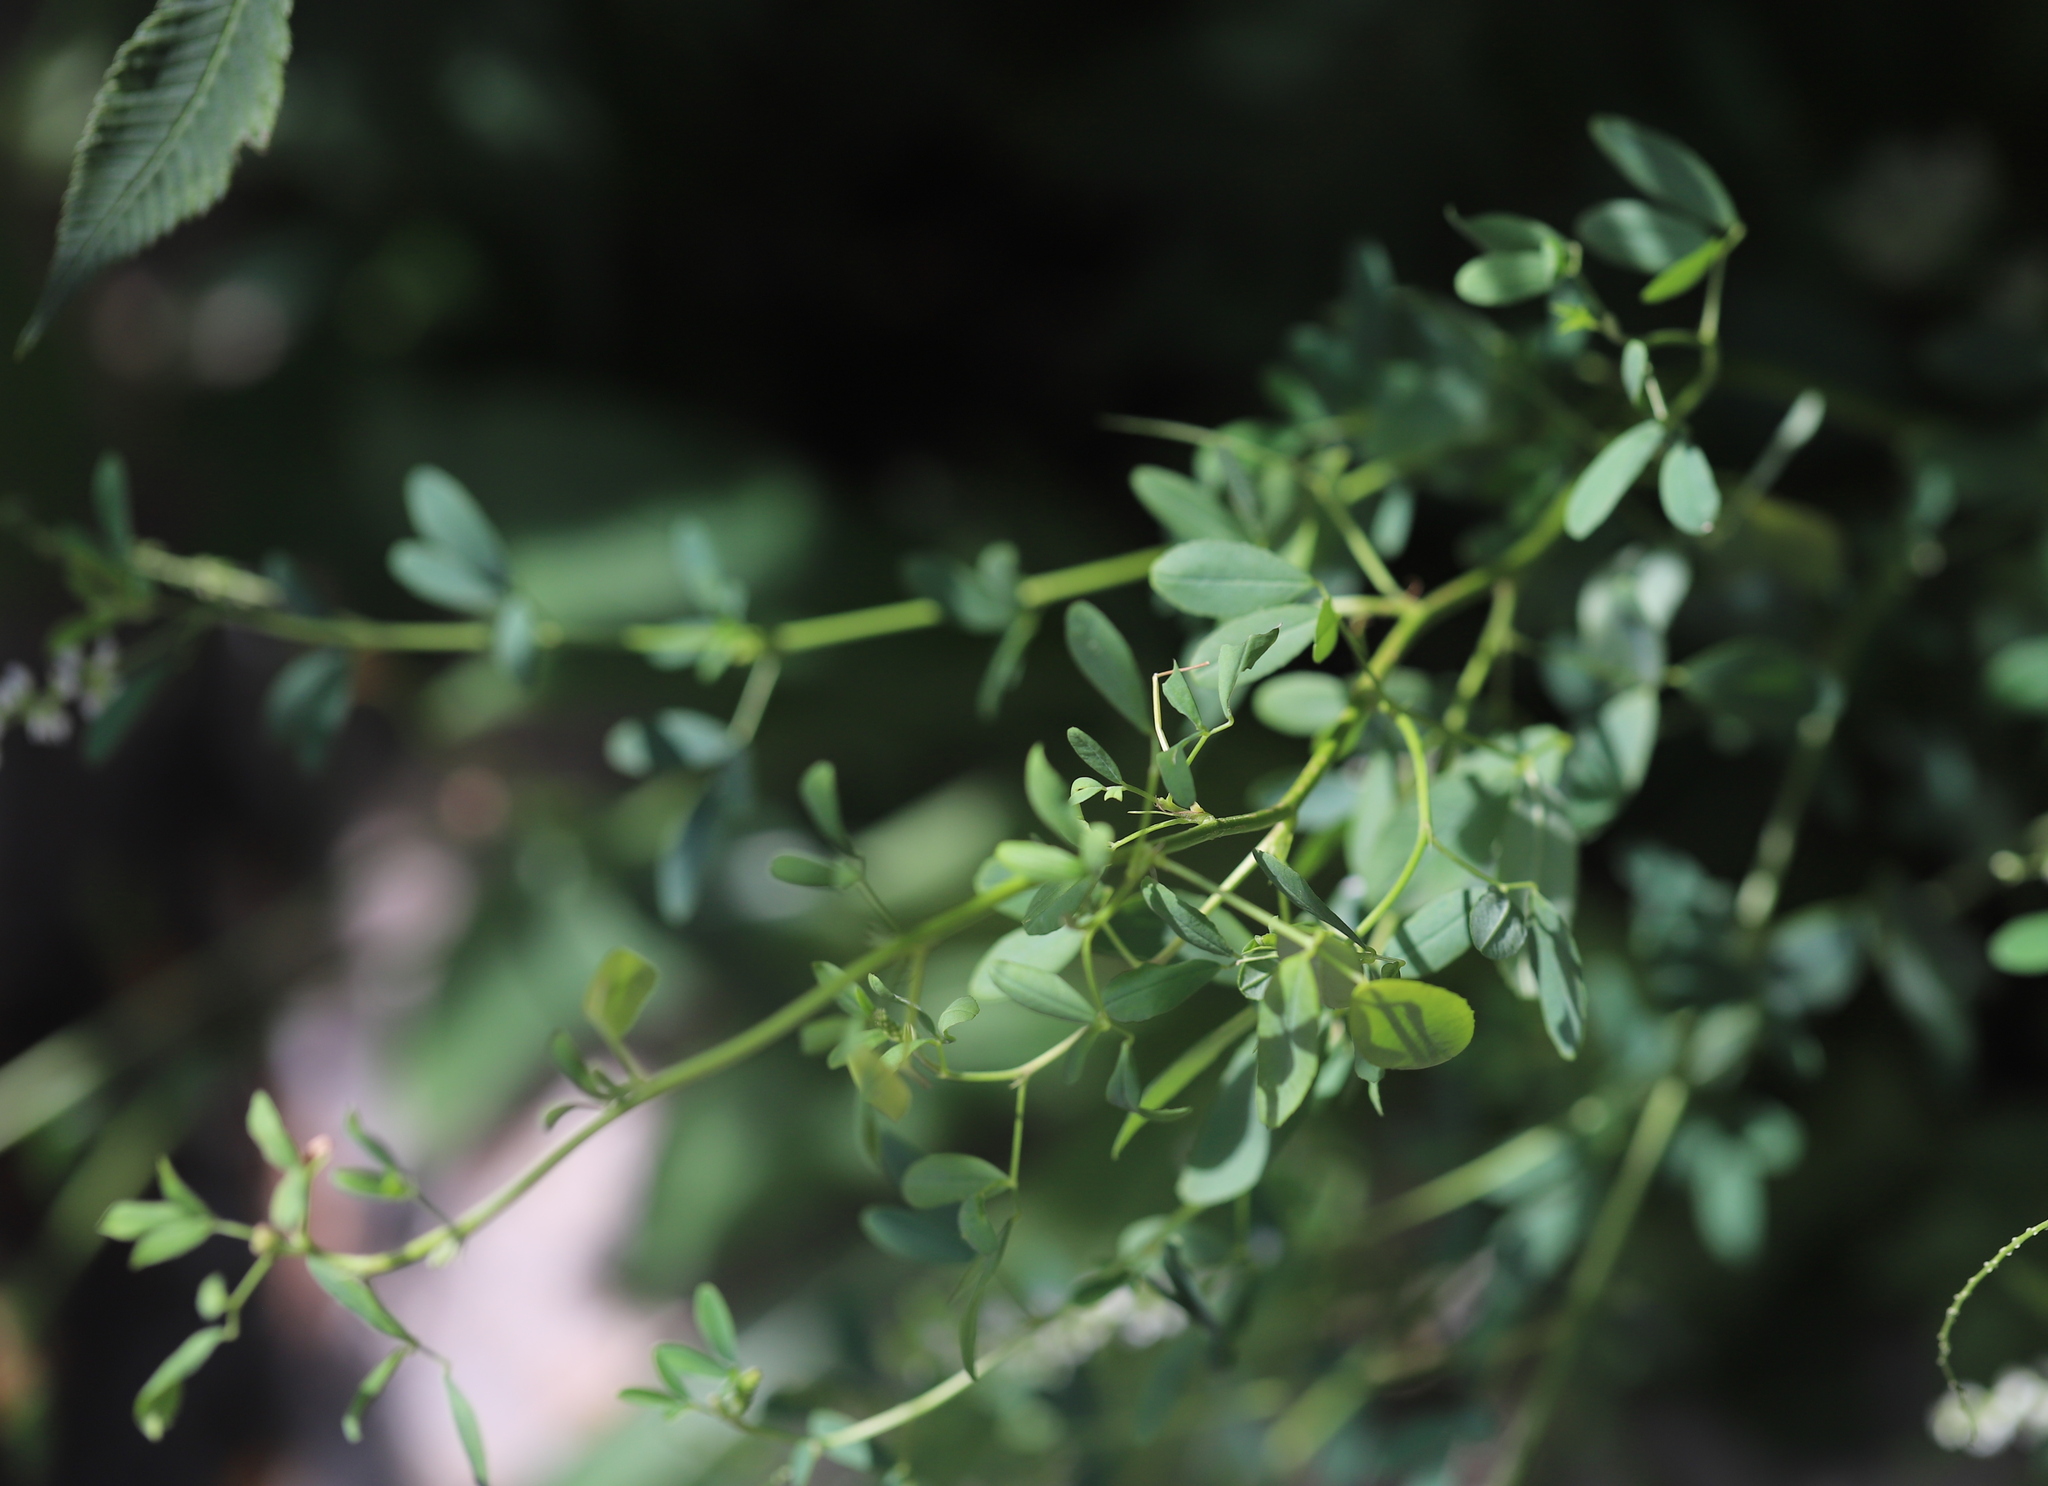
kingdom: Plantae
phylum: Tracheophyta
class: Magnoliopsida
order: Fabales
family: Fabaceae
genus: Melilotus
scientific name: Melilotus albus
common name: White melilot
